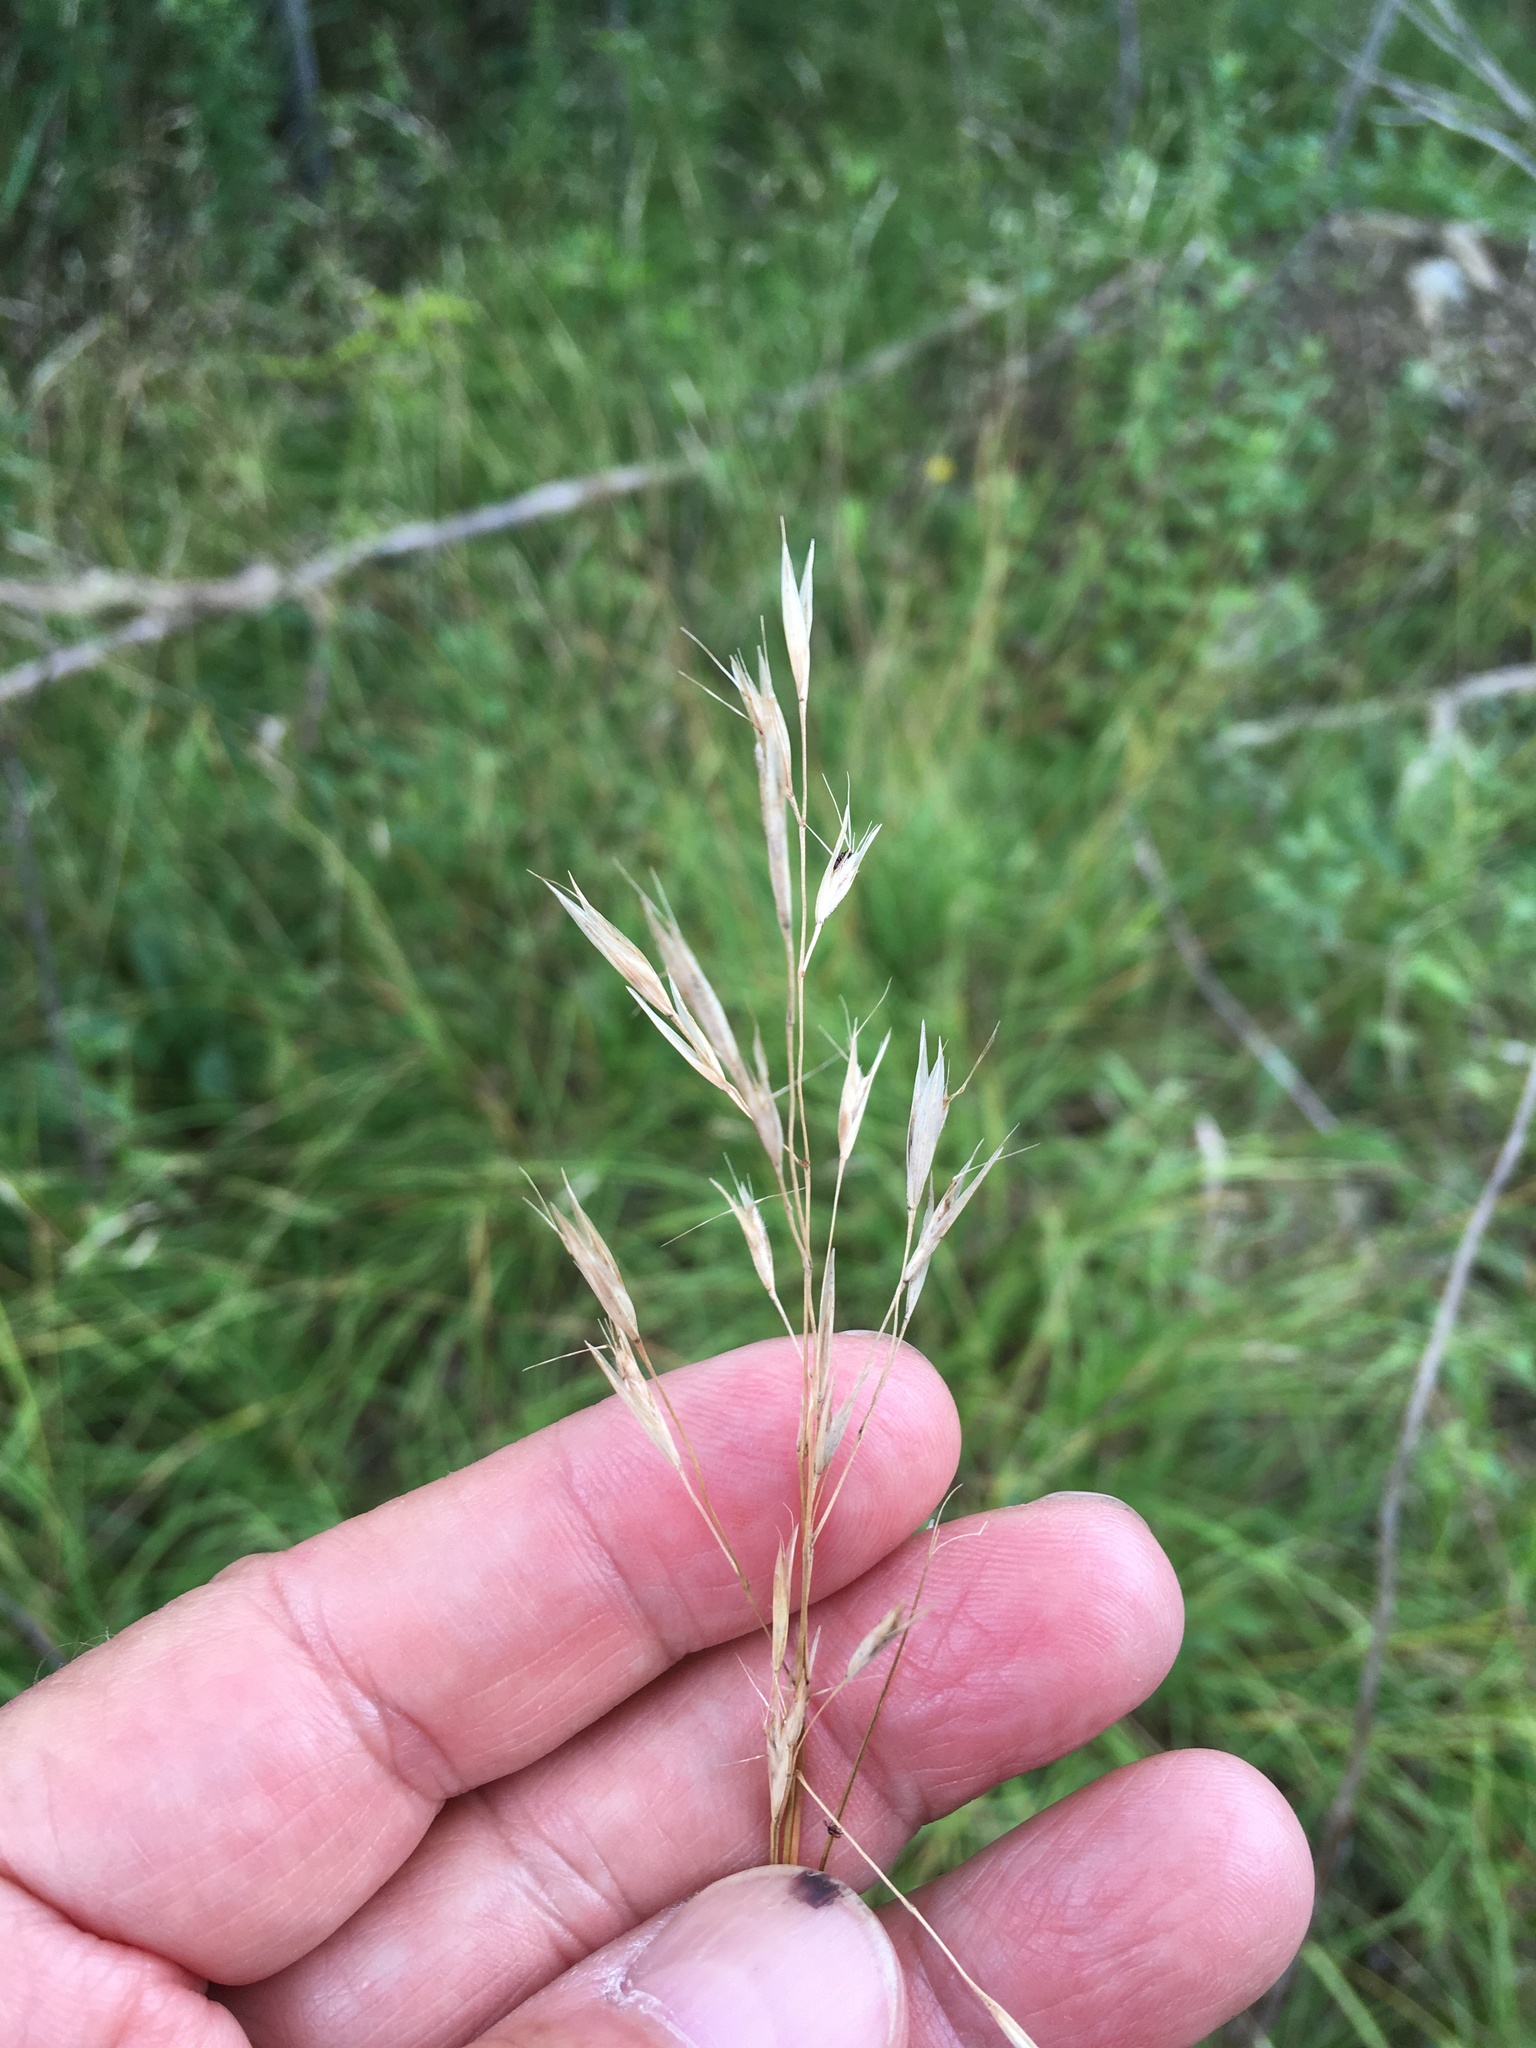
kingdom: Plantae
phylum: Tracheophyta
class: Liliopsida
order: Poales
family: Poaceae
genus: Danthonia
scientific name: Danthonia spicata
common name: Common wild oatgrass
